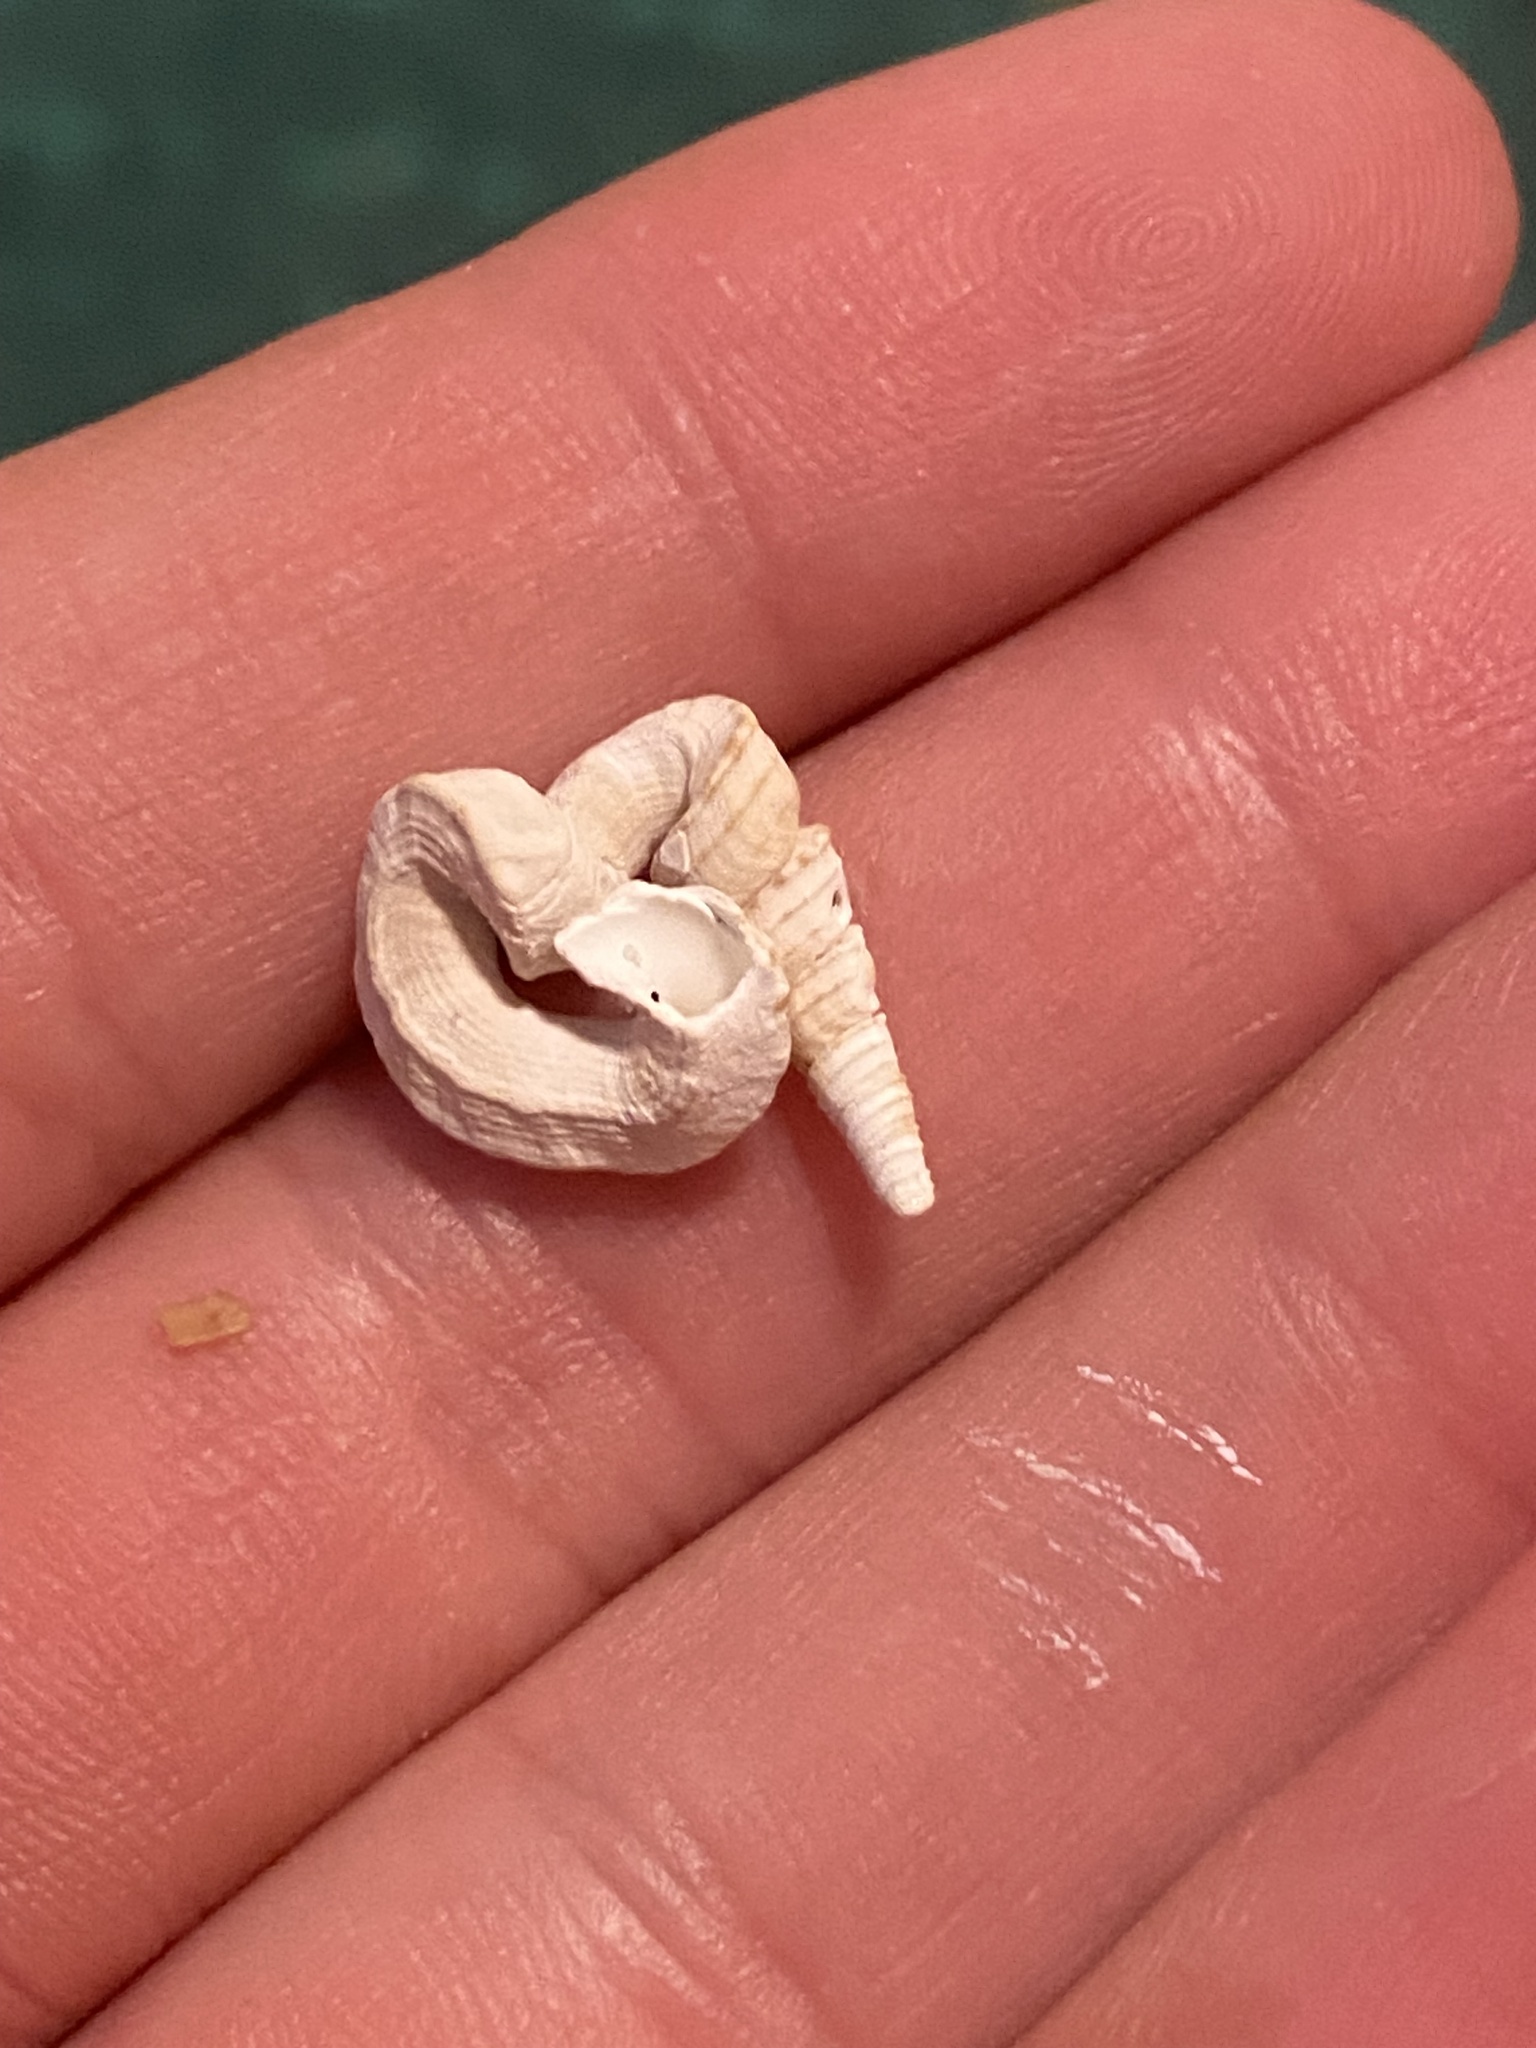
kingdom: Animalia
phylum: Mollusca
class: Gastropoda
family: Turritellidae
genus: Vermicularia
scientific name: Vermicularia fargoi
